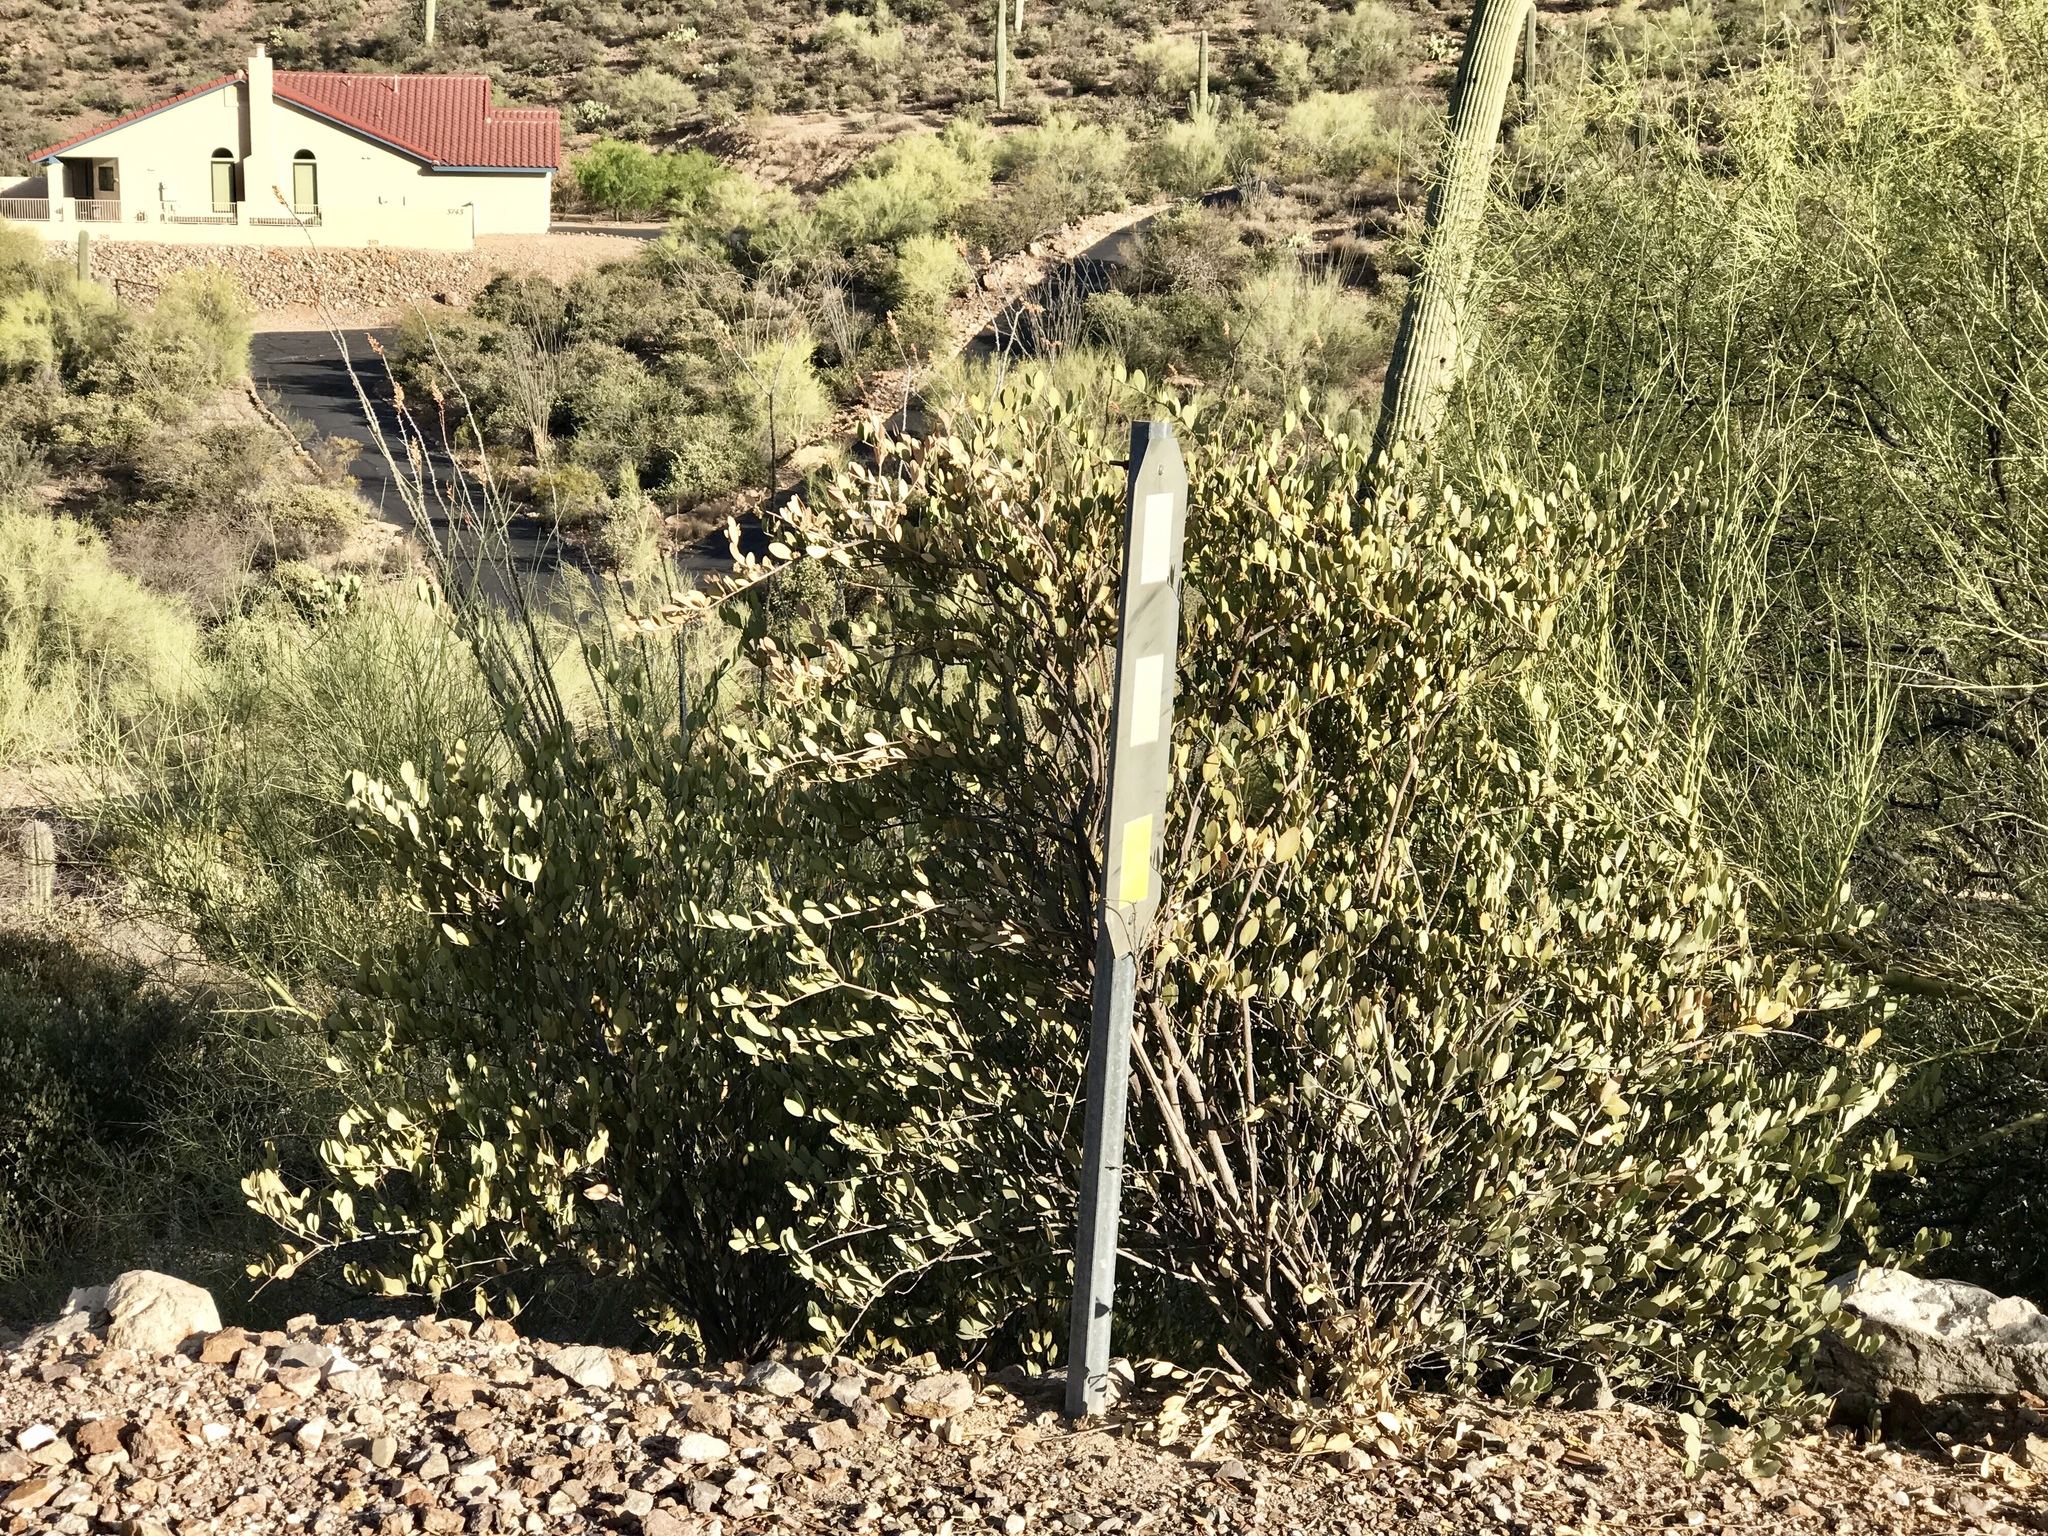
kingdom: Plantae
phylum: Tracheophyta
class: Magnoliopsida
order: Caryophyllales
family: Simmondsiaceae
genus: Simmondsia
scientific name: Simmondsia chinensis
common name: Jojoba
